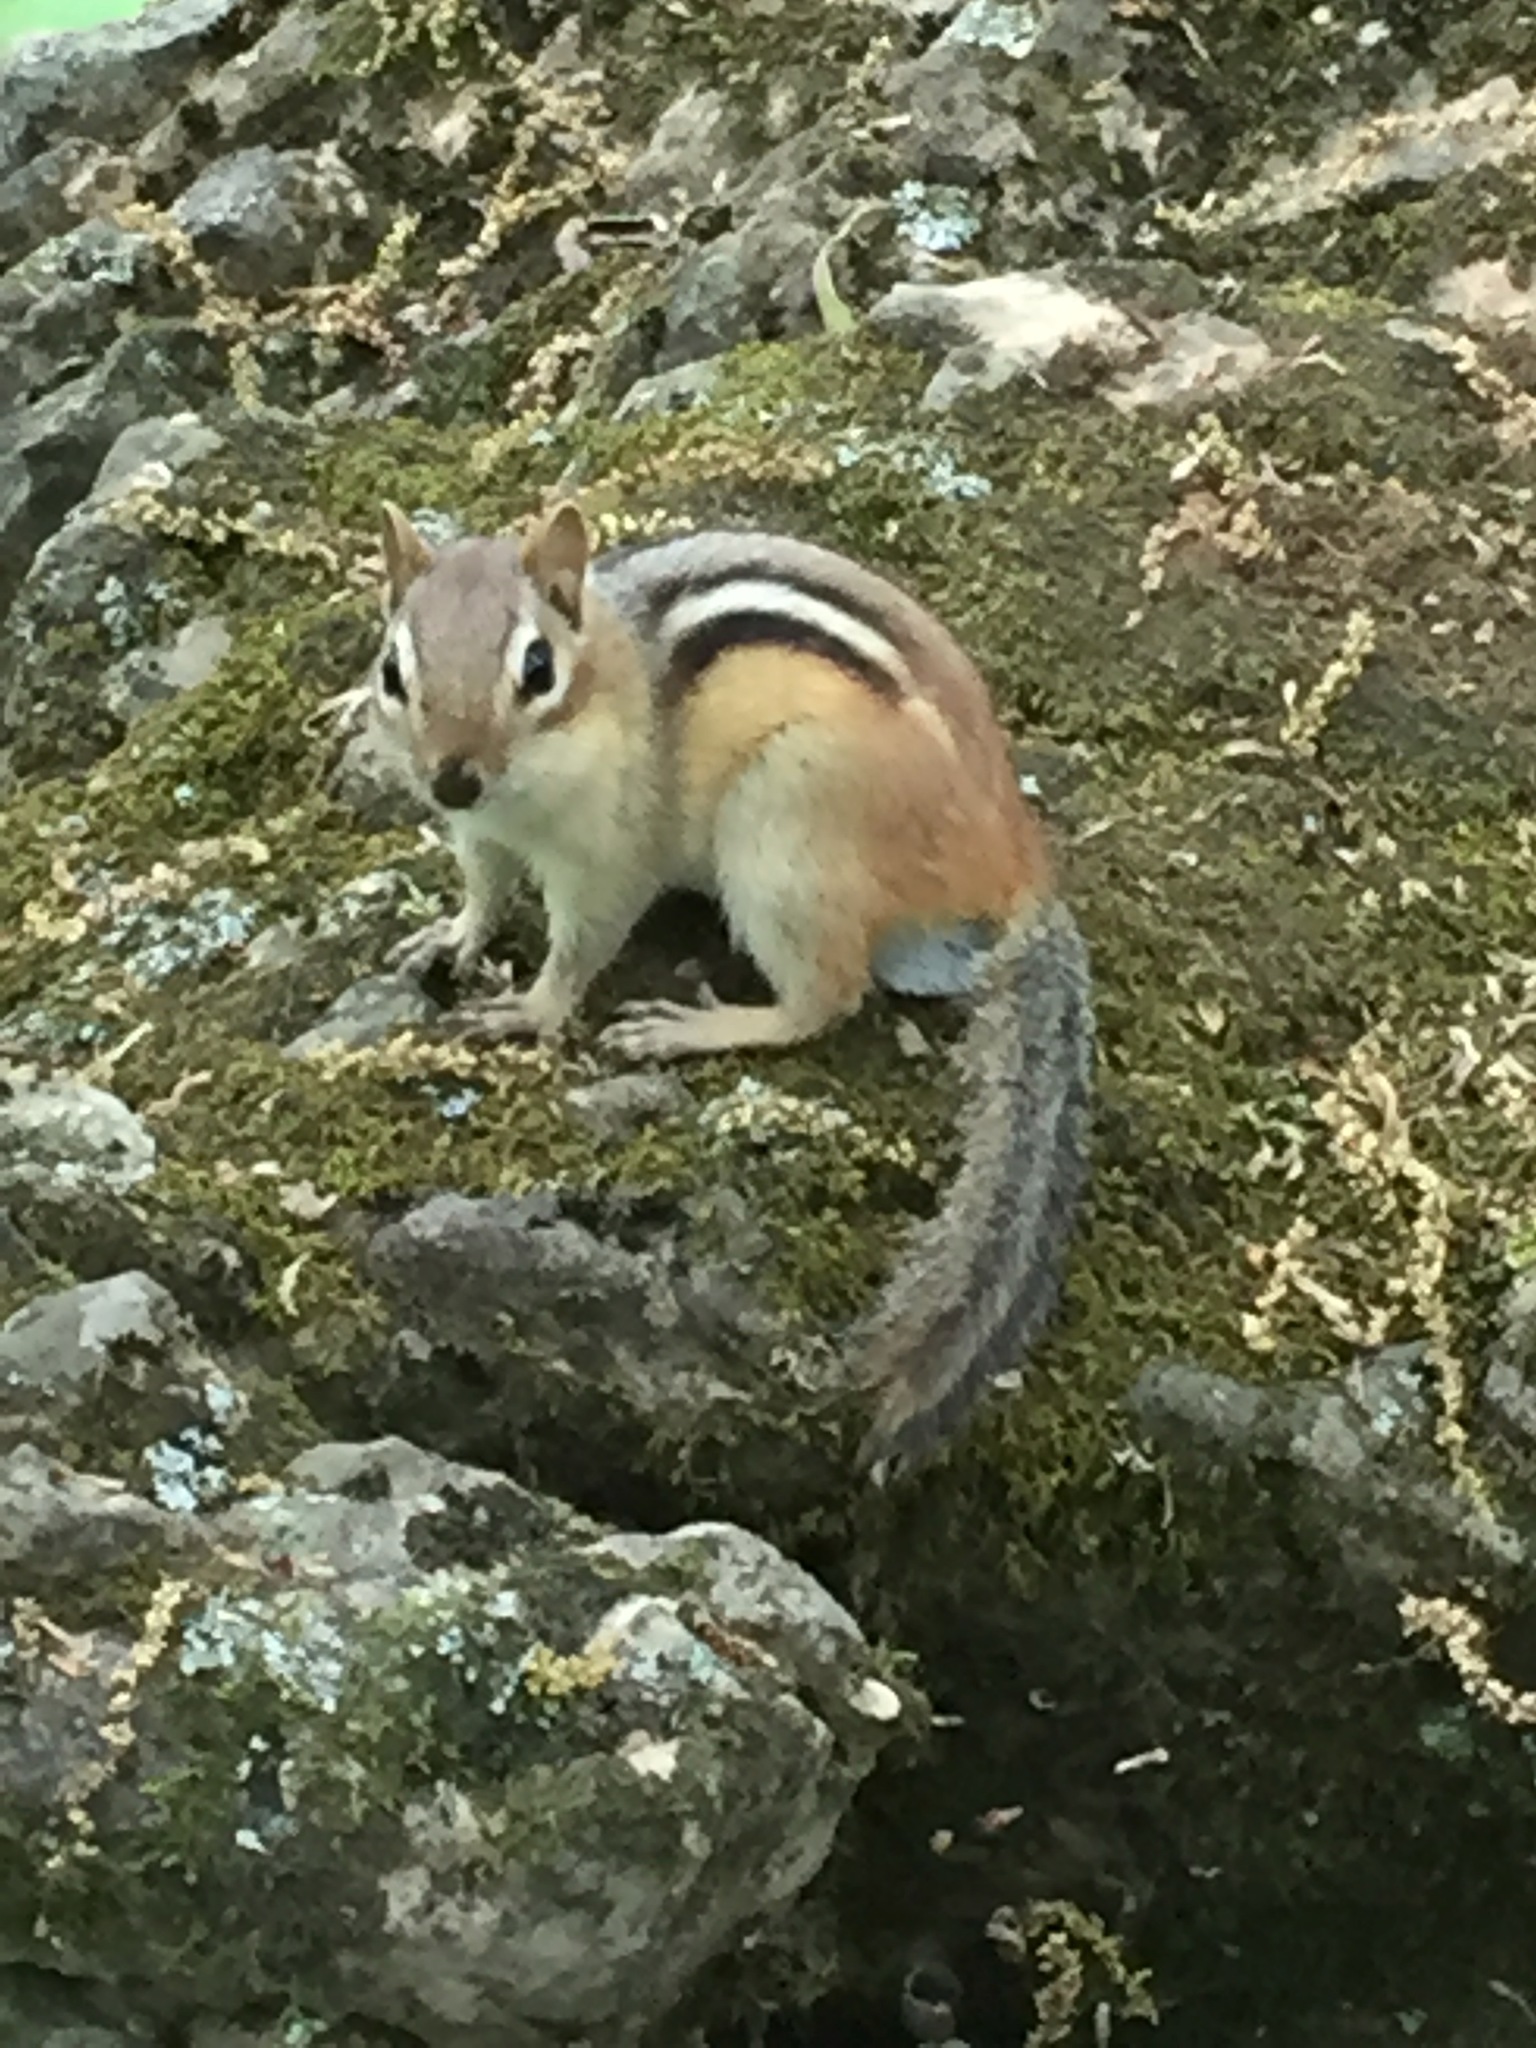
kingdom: Animalia
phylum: Chordata
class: Mammalia
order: Rodentia
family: Sciuridae
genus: Tamias
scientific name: Tamias striatus
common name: Eastern chipmunk
